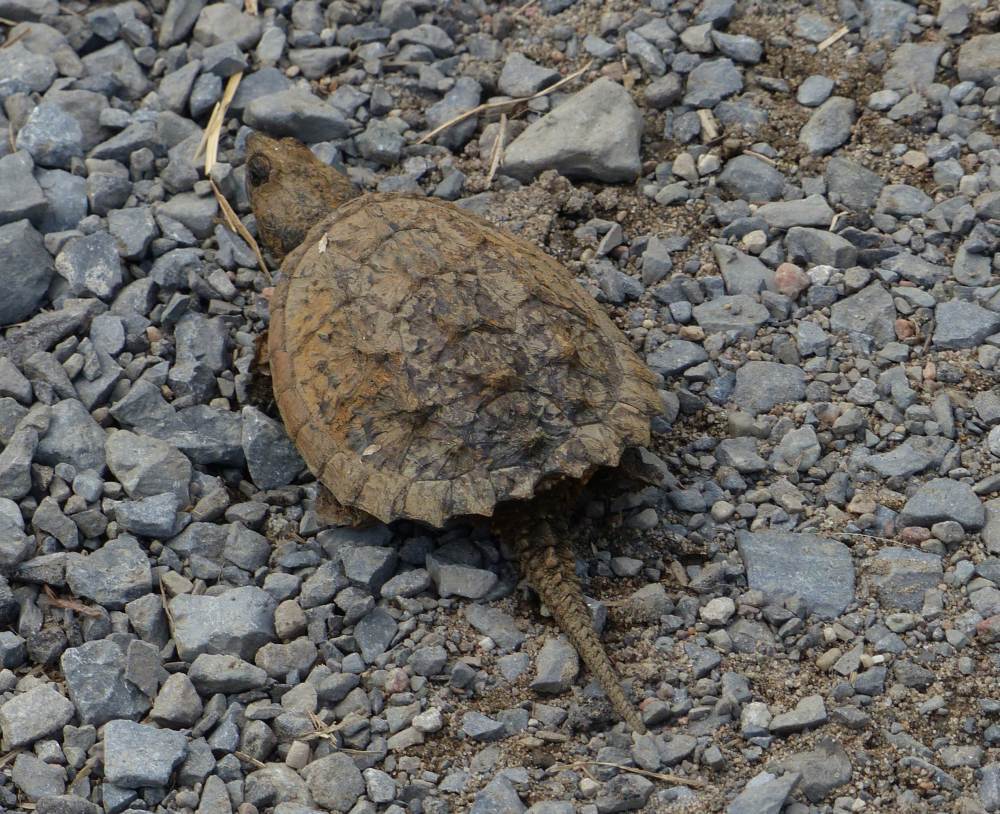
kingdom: Animalia
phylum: Chordata
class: Testudines
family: Chelydridae
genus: Chelydra
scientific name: Chelydra serpentina
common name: Common snapping turtle
